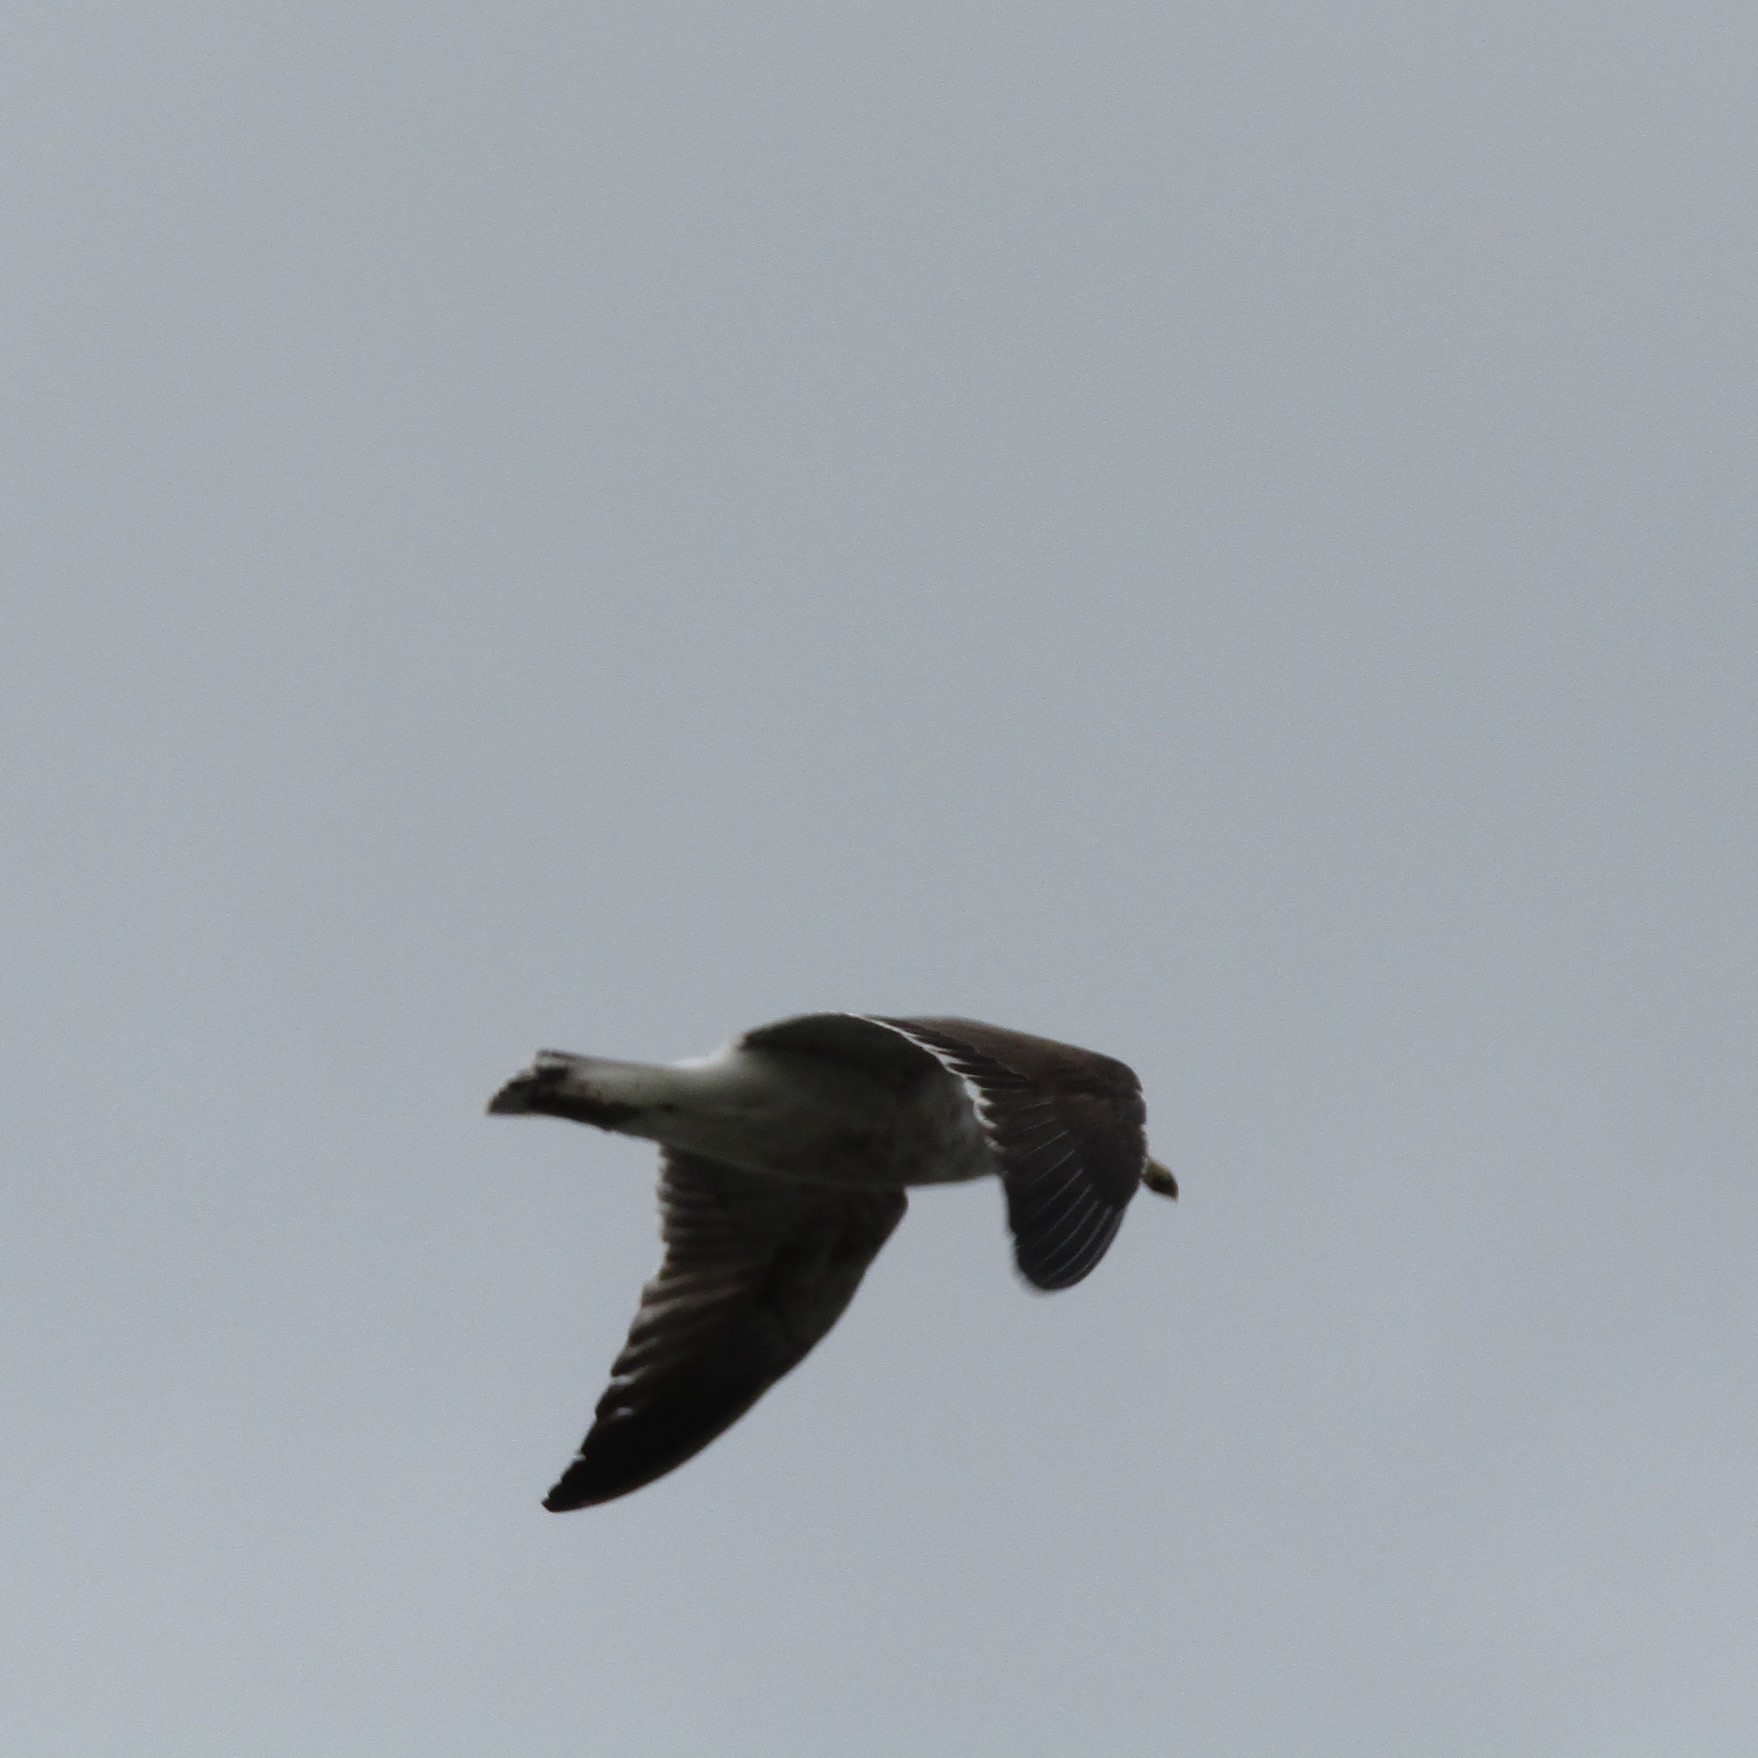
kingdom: Animalia
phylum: Chordata
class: Aves
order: Charadriiformes
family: Laridae
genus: Larus
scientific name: Larus dominicanus
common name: Kelp gull
